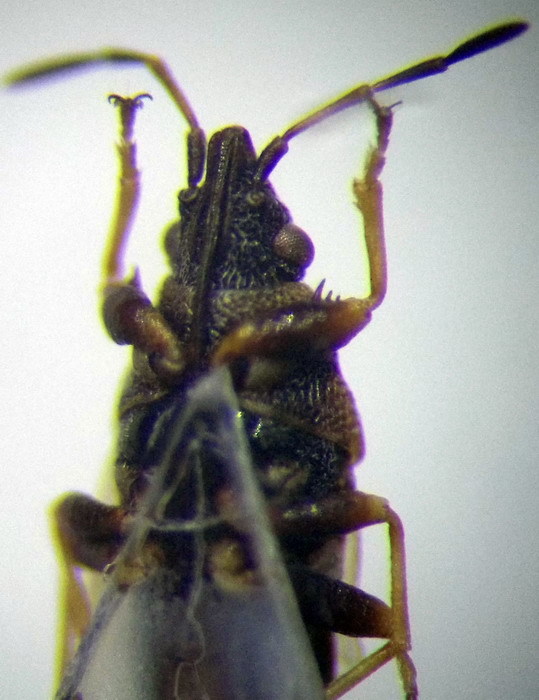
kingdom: Animalia
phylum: Arthropoda
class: Insecta
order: Hemiptera
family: Oxycarenidae
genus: Oxycarenus
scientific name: Oxycarenus pallens
